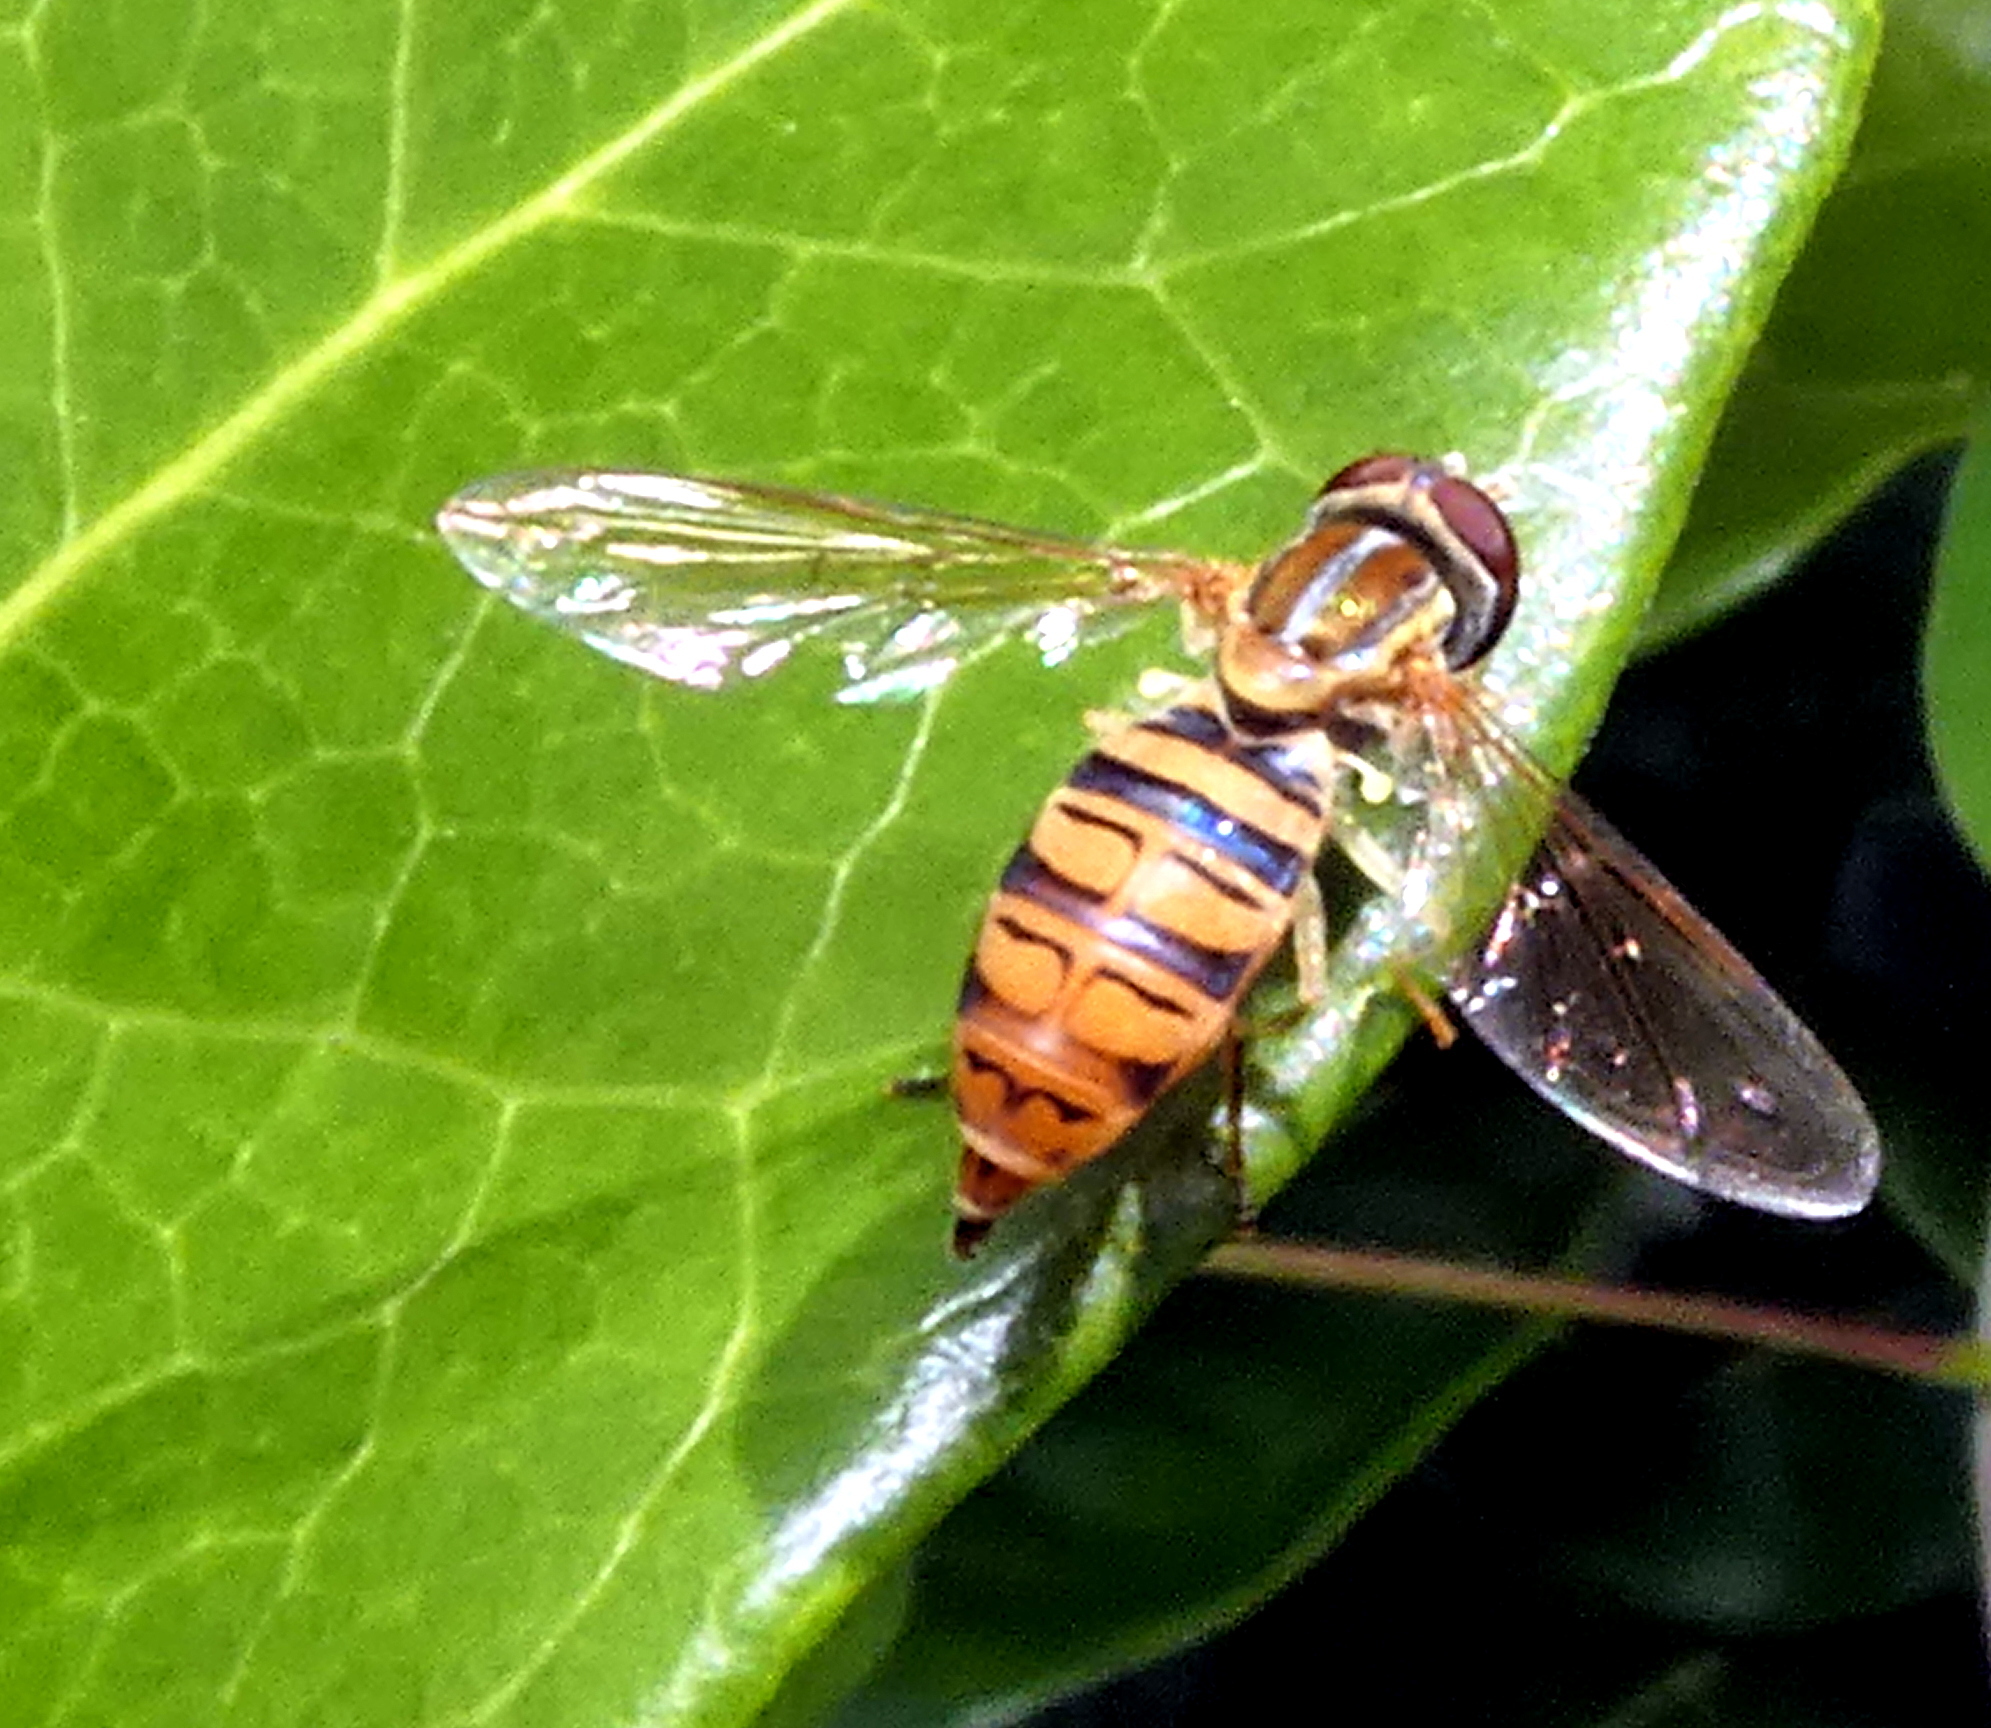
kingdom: Animalia
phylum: Arthropoda
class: Insecta
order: Diptera
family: Syrphidae
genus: Toxomerus
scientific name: Toxomerus politus
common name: Maize calligrapher
